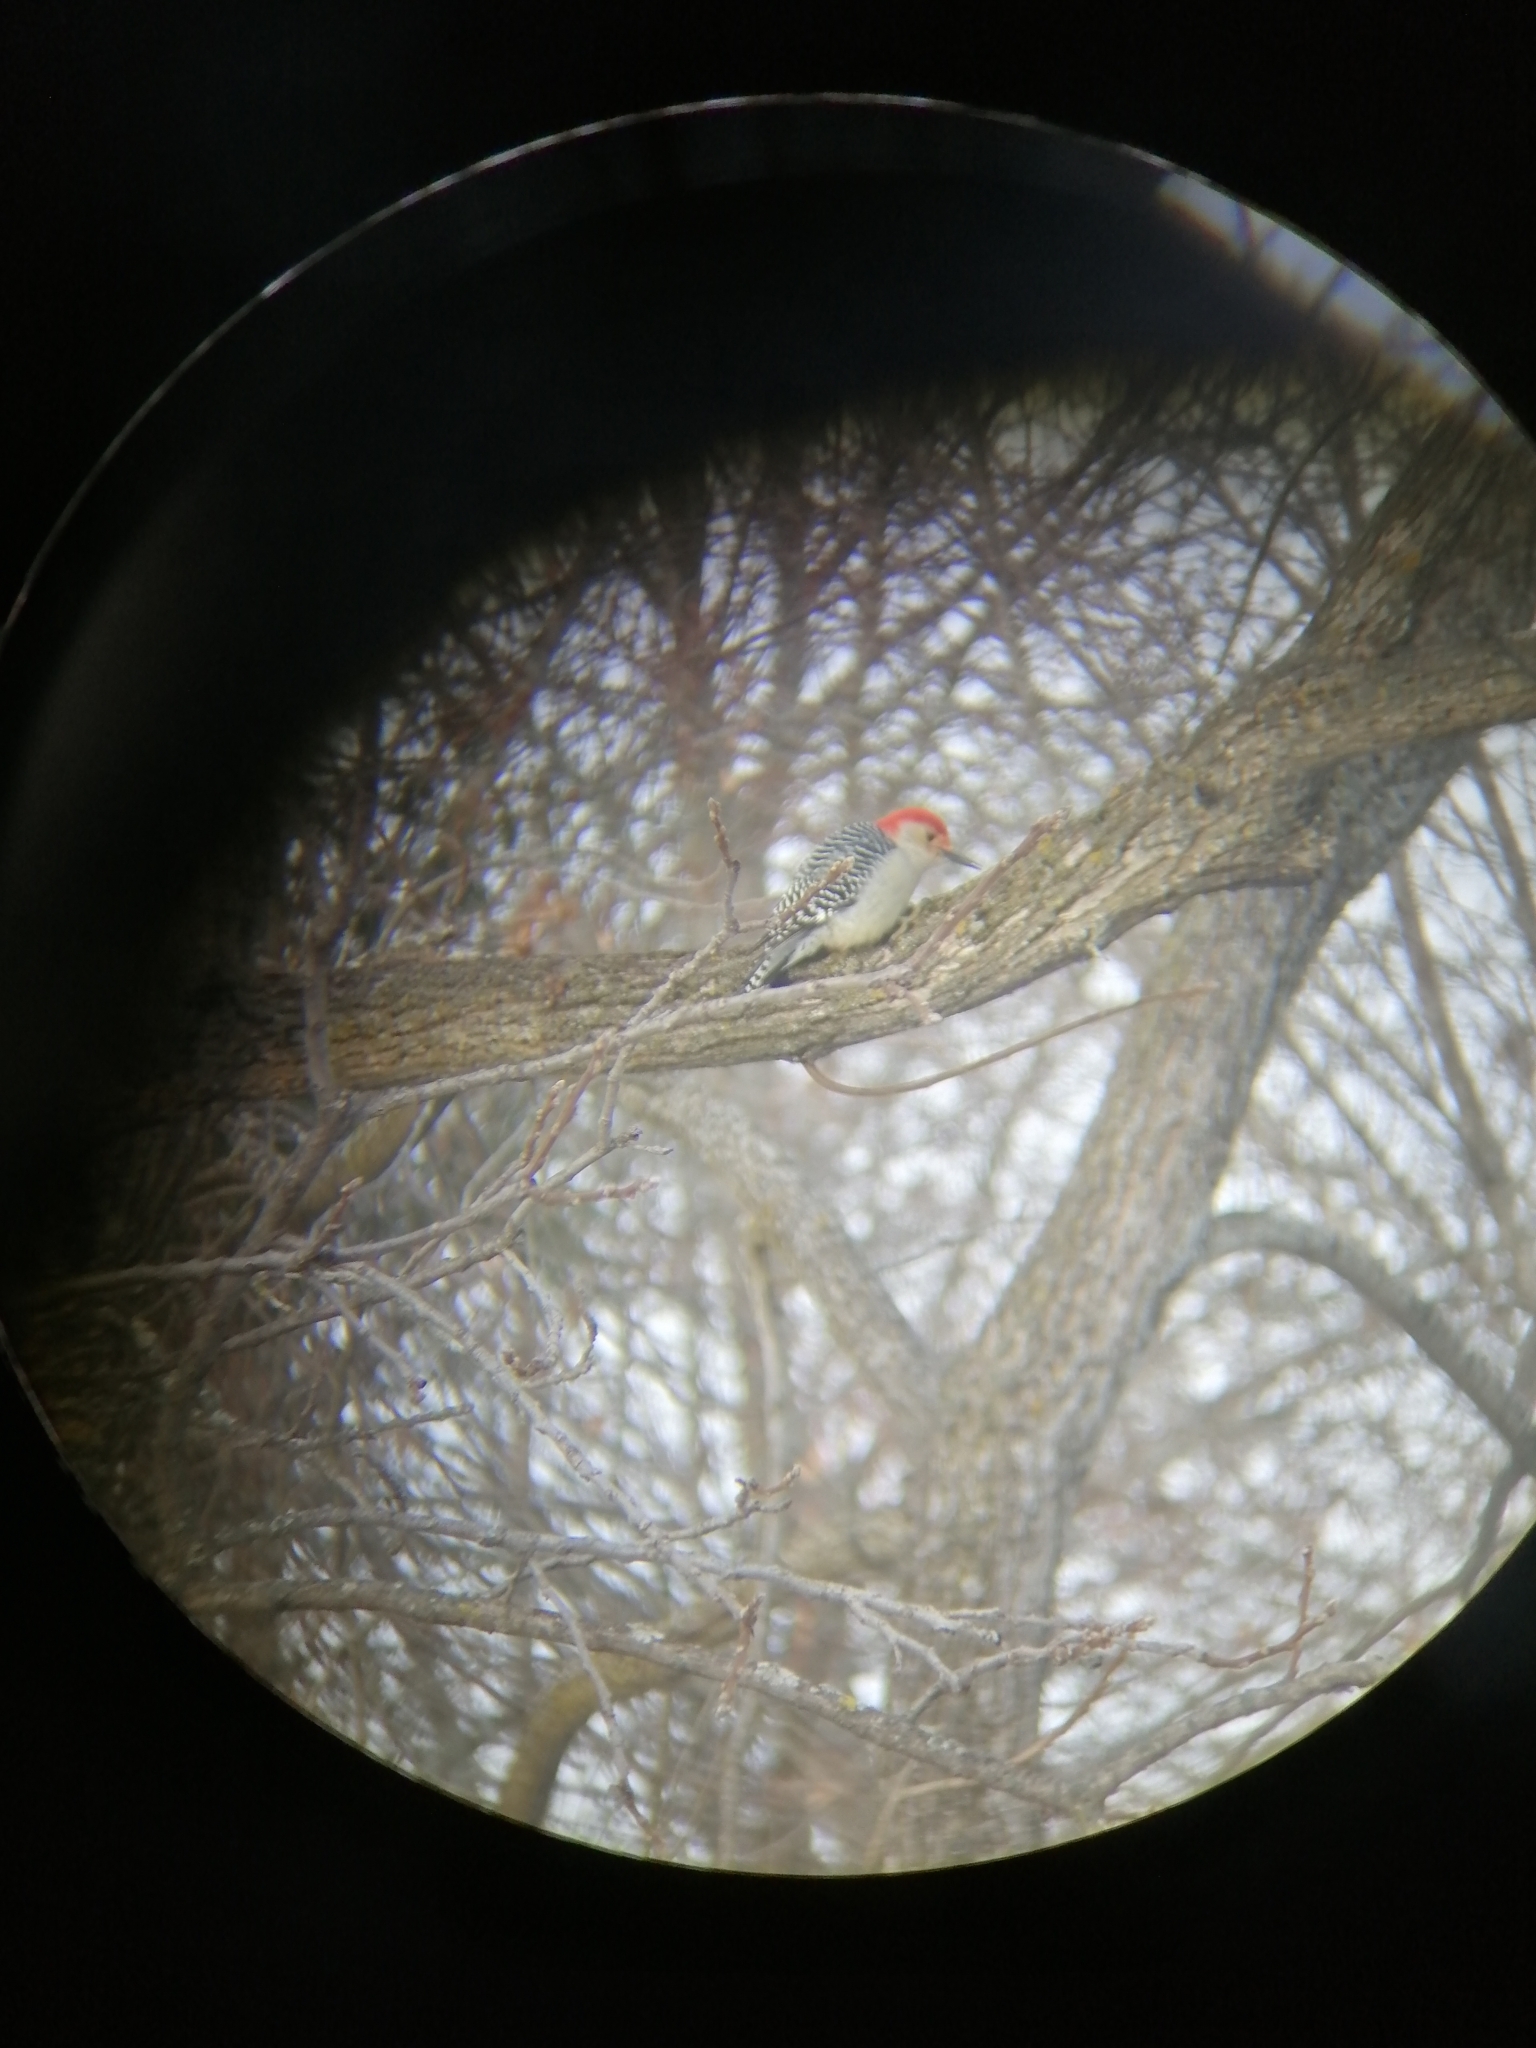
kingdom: Animalia
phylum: Chordata
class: Aves
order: Piciformes
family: Picidae
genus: Melanerpes
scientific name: Melanerpes carolinus
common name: Red-bellied woodpecker
